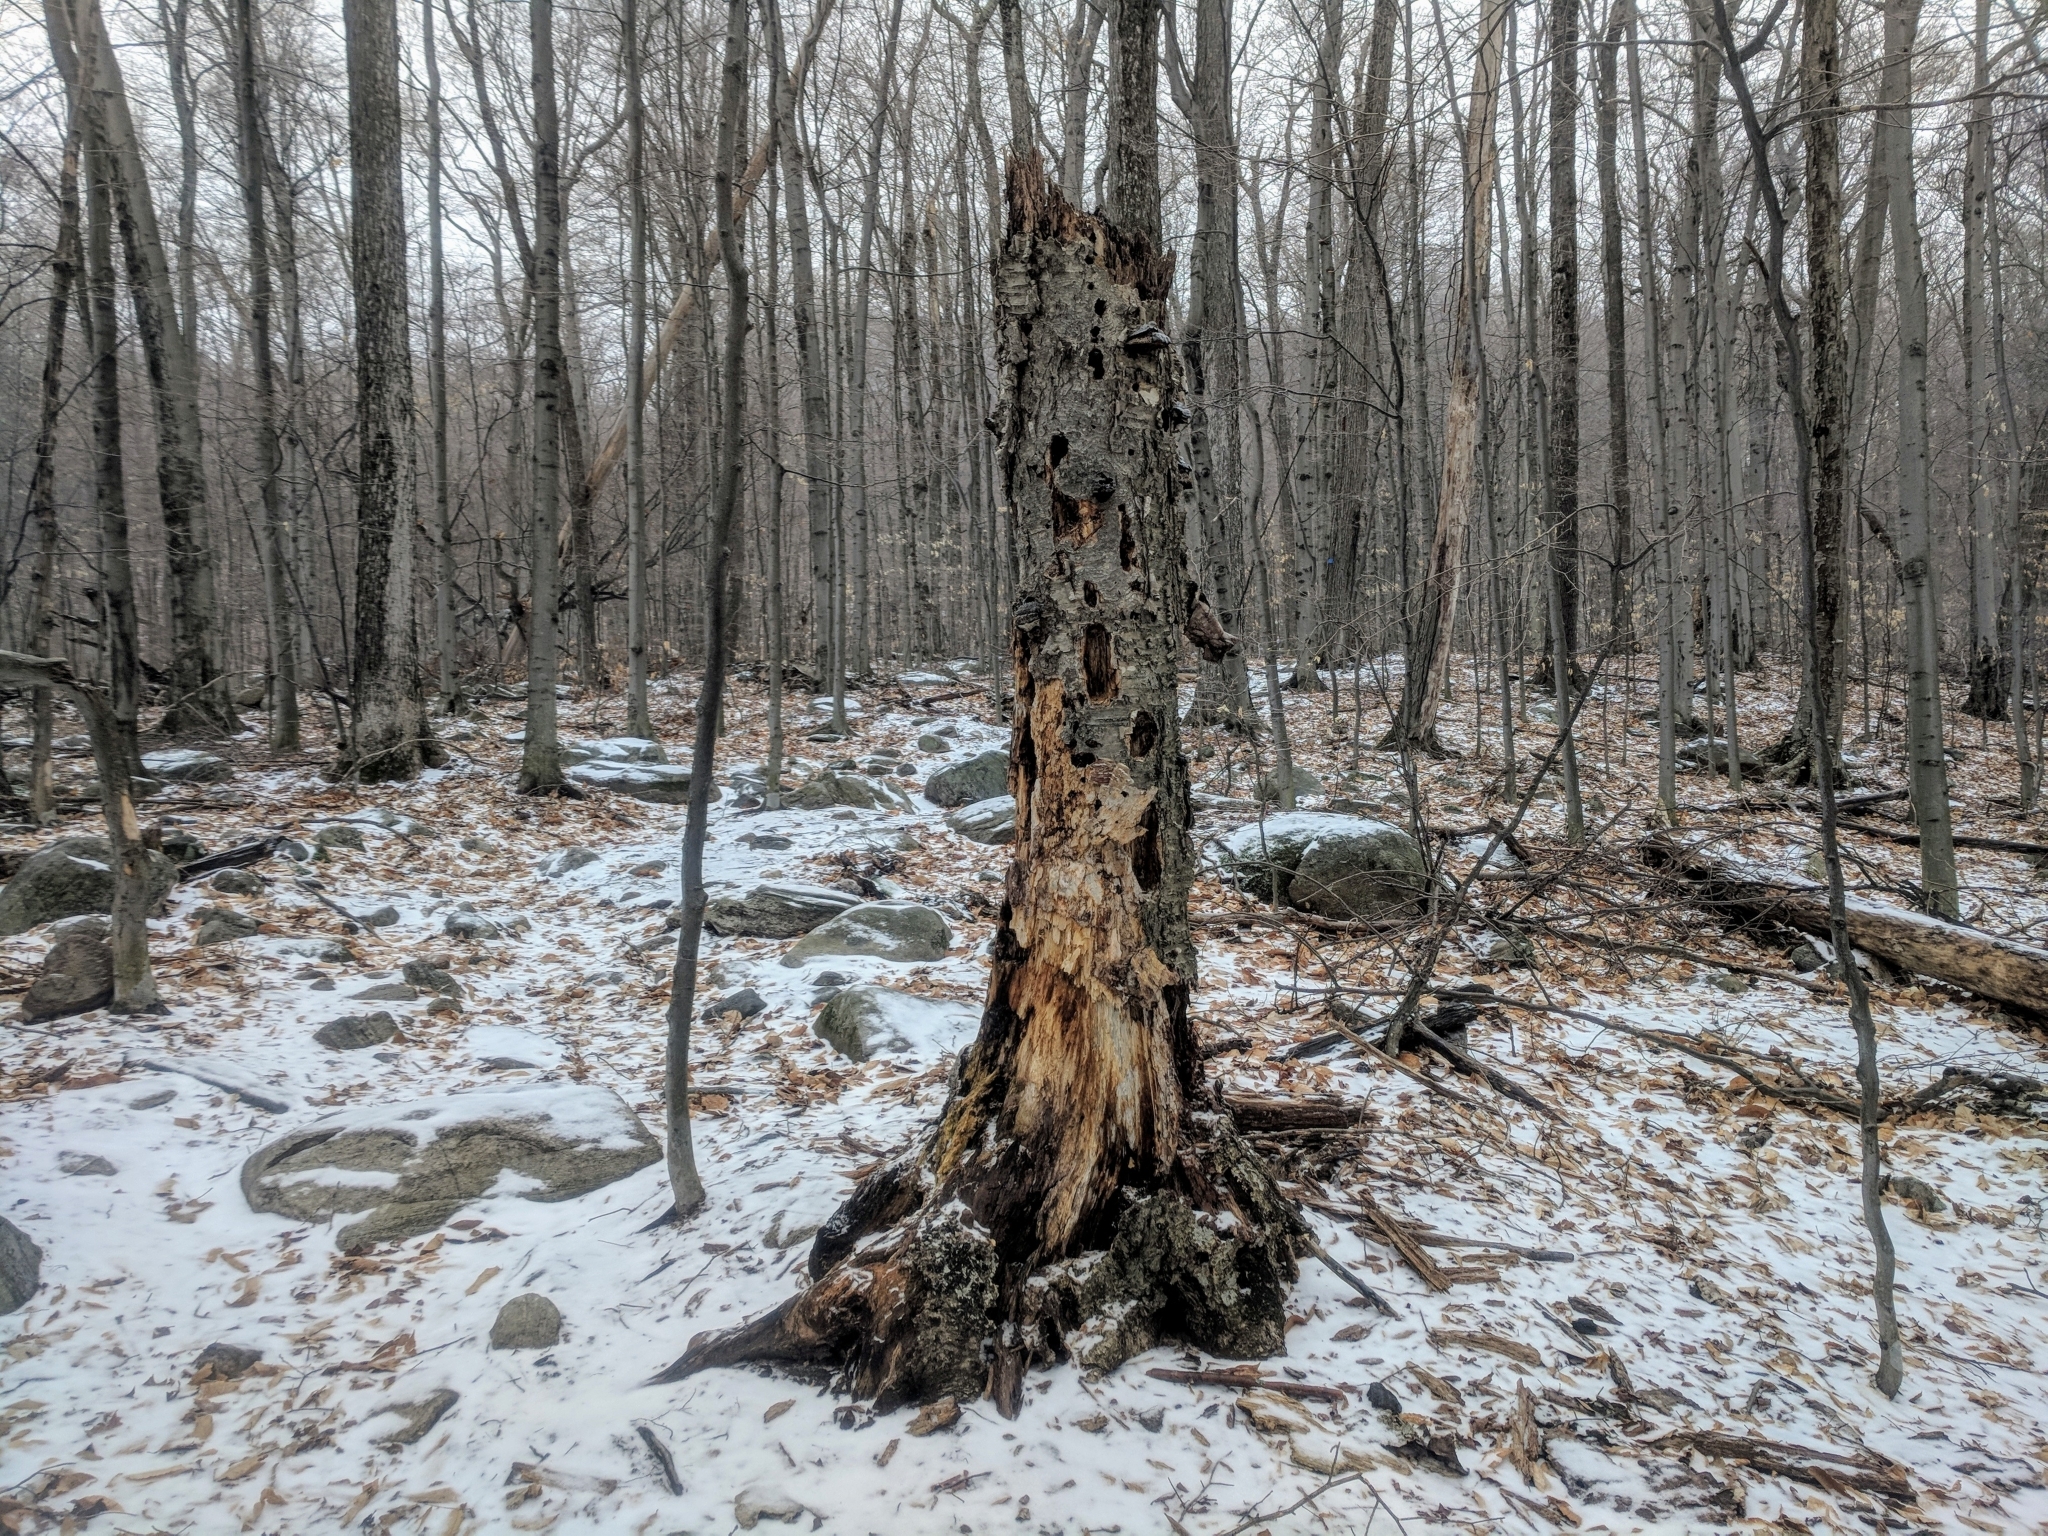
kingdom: Plantae
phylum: Tracheophyta
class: Magnoliopsida
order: Fagales
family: Betulaceae
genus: Betula
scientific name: Betula alleghaniensis
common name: Yellow birch
